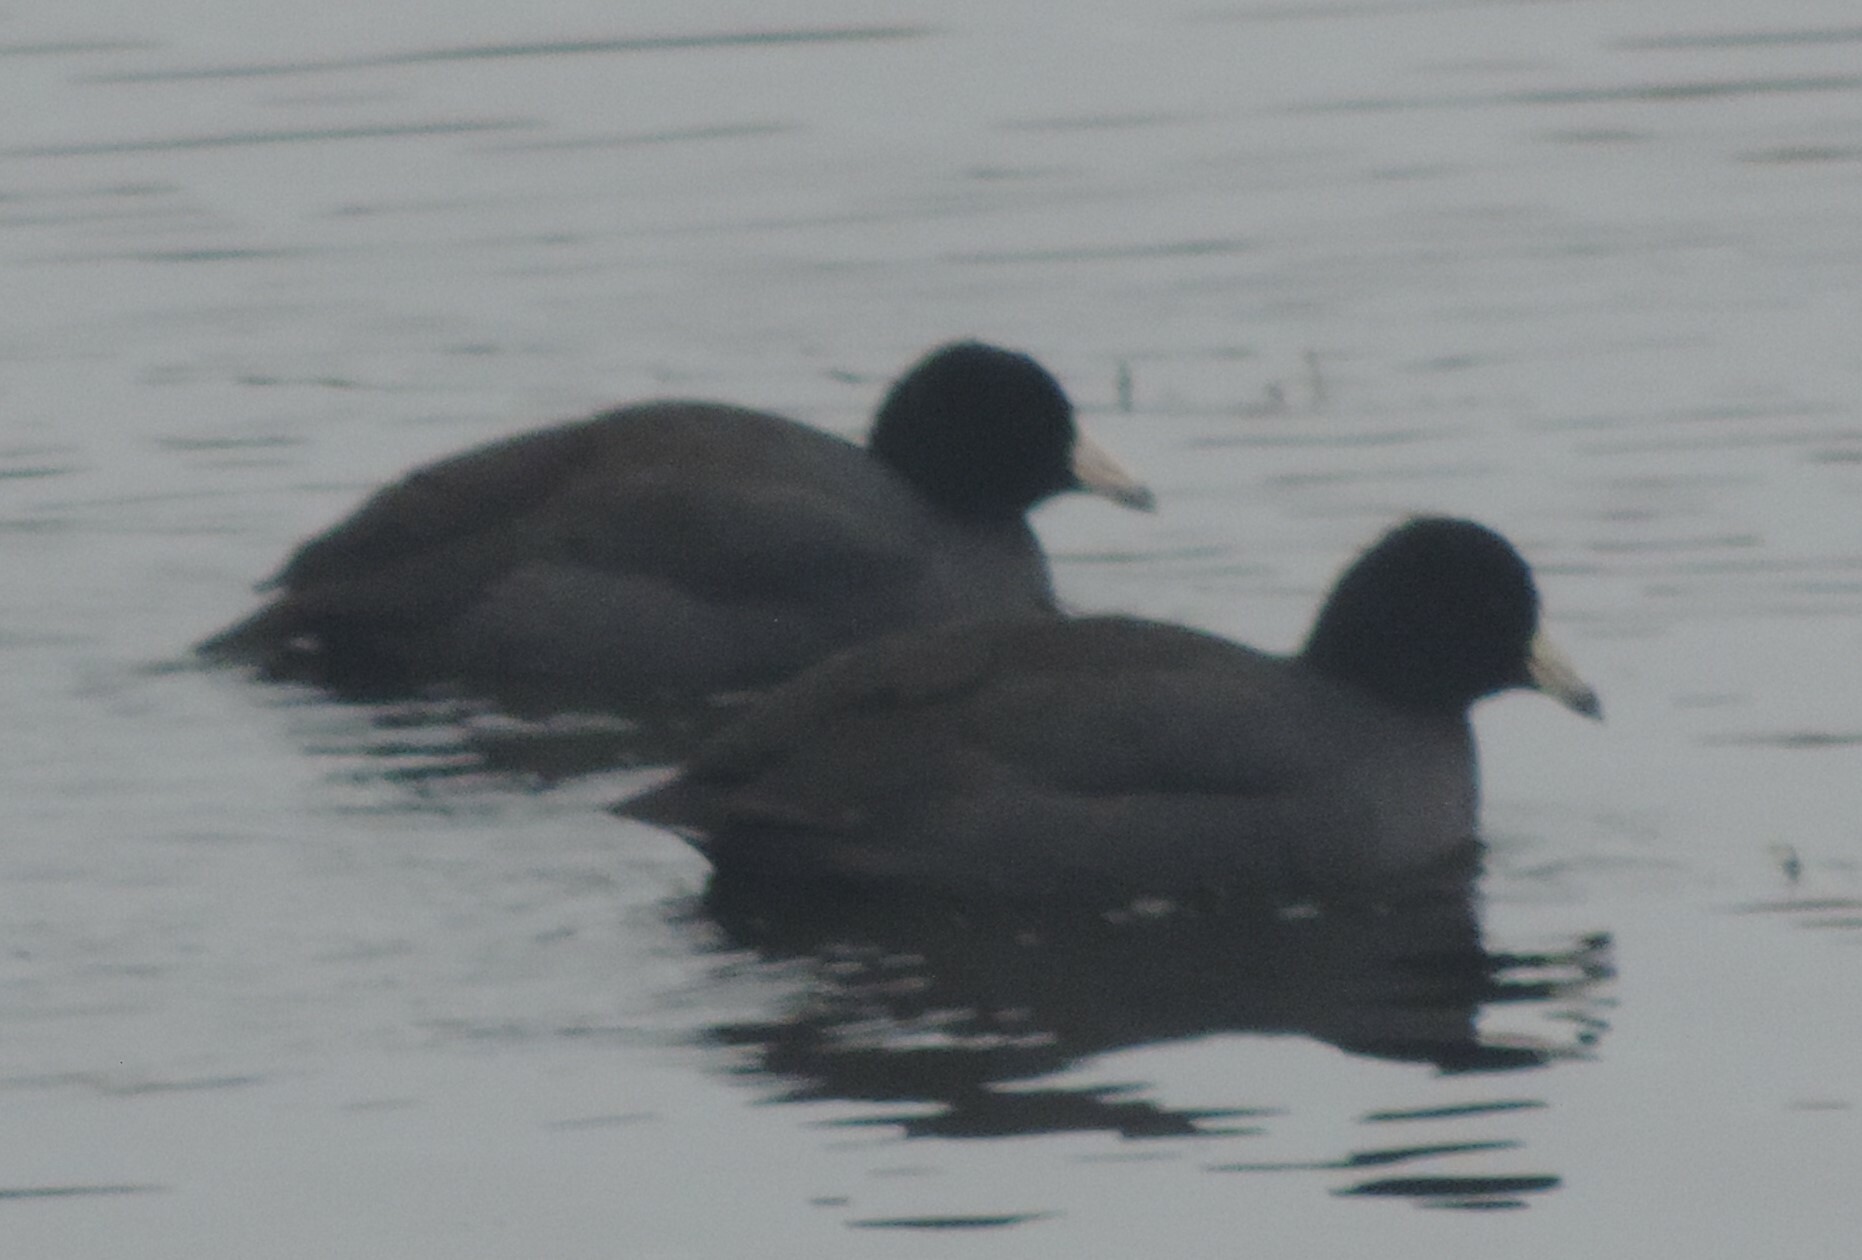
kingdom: Animalia
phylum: Chordata
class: Aves
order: Gruiformes
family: Rallidae
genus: Fulica
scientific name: Fulica americana
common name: American coot
